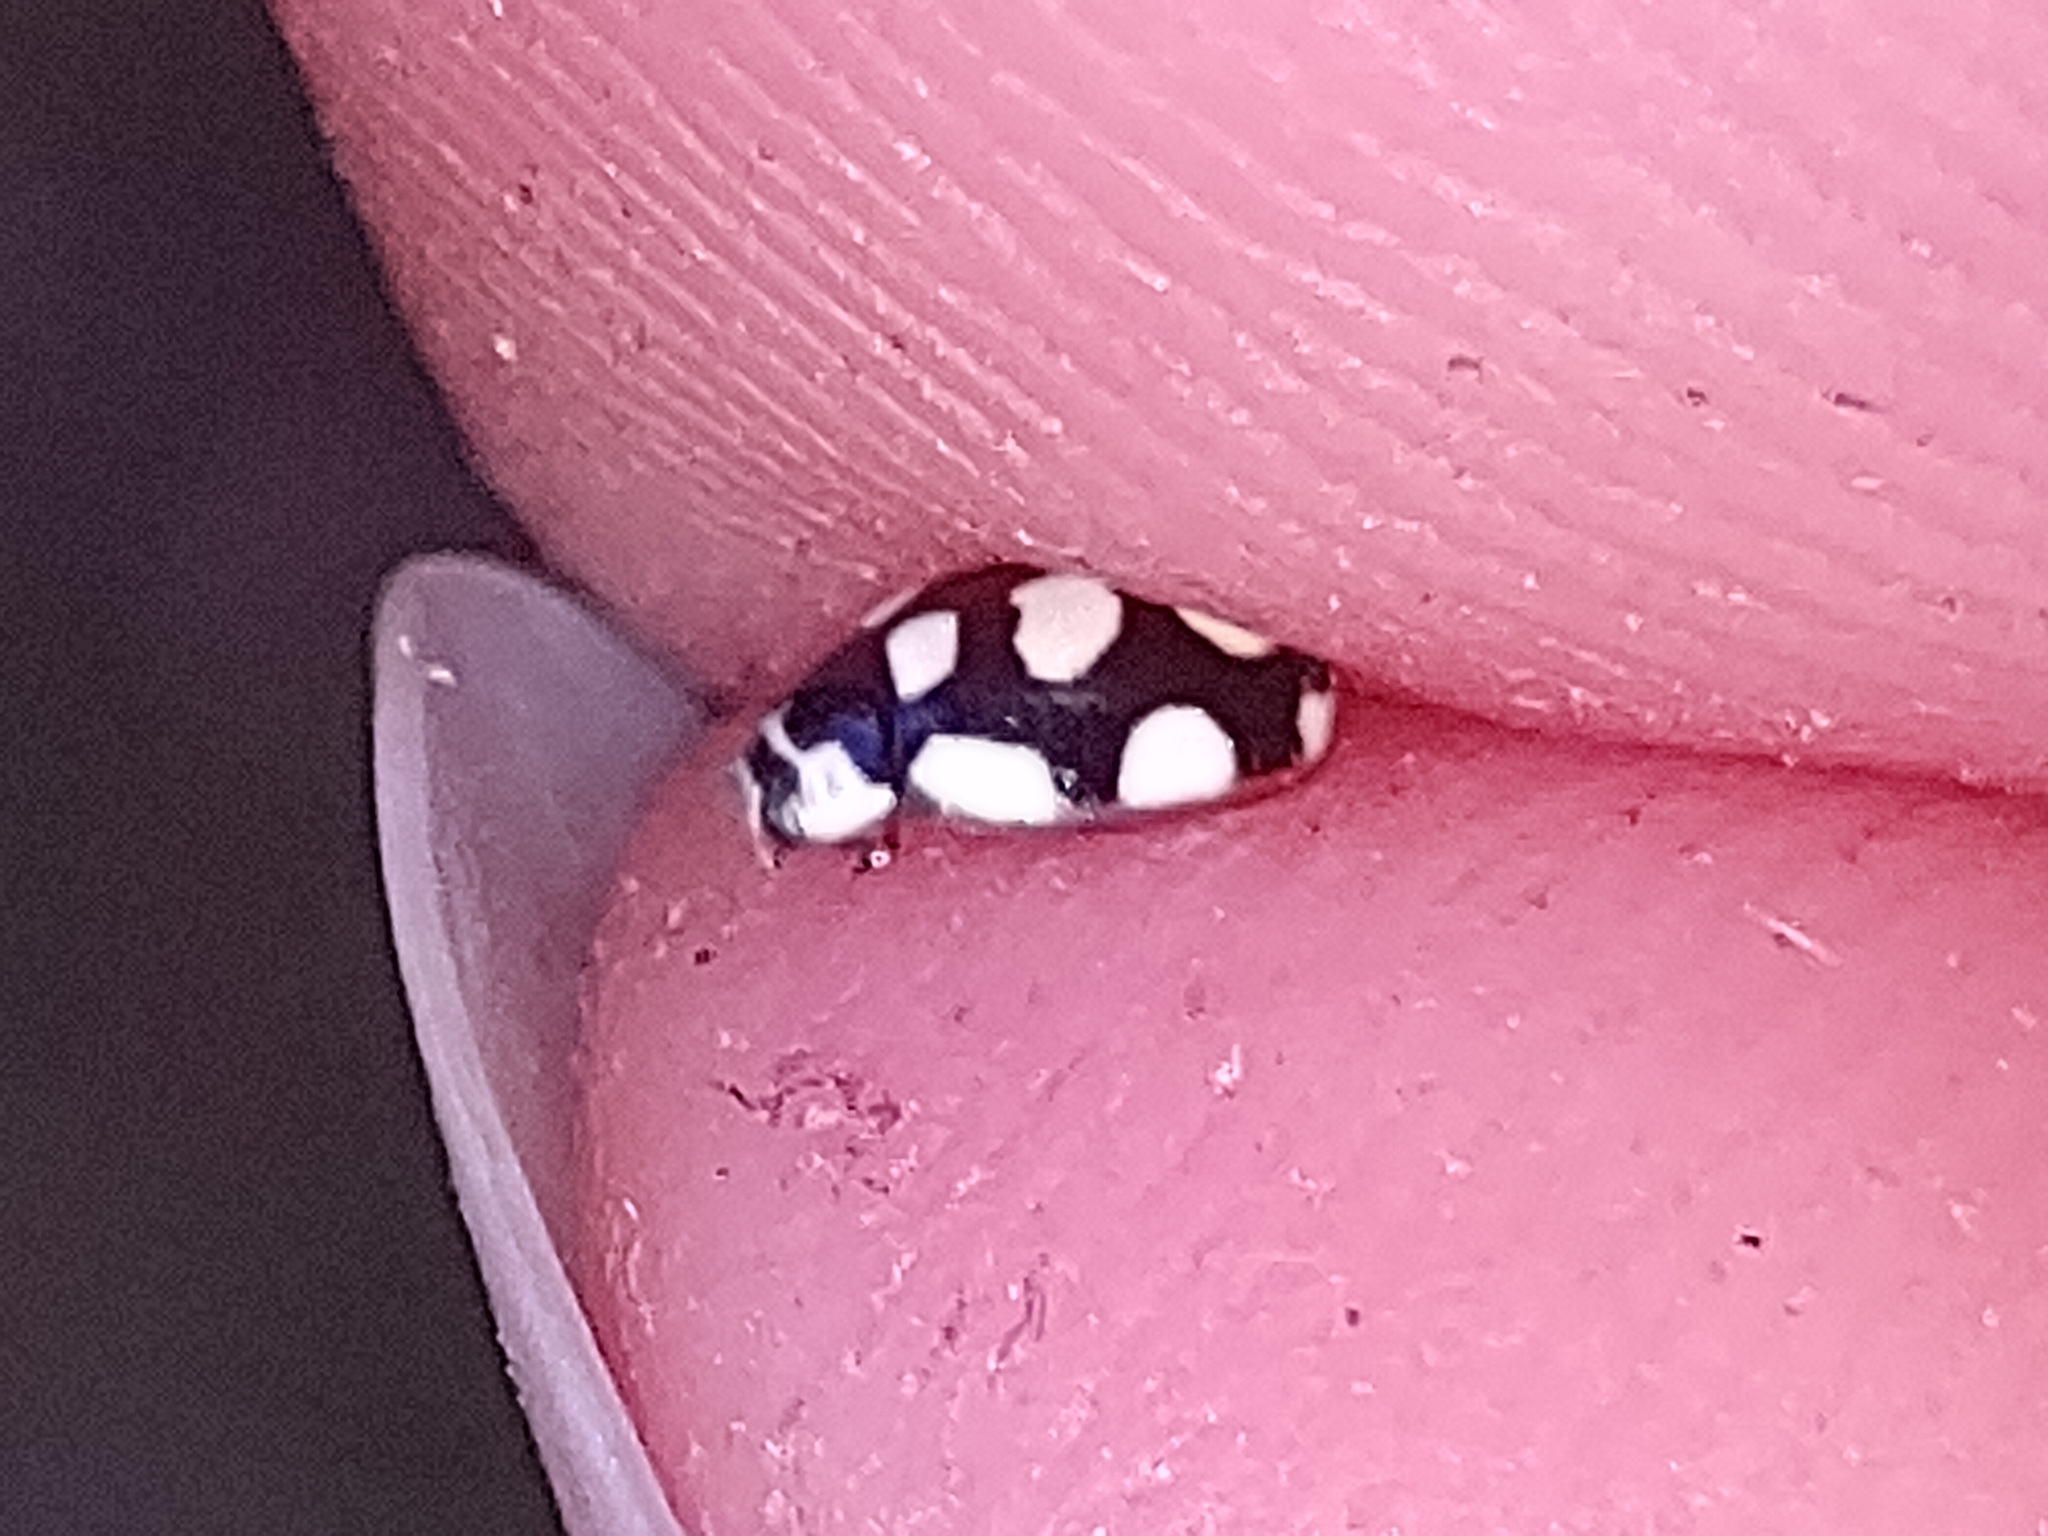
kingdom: Animalia
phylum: Arthropoda
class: Insecta
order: Coleoptera
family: Coccinellidae
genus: Oenopia
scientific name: Oenopia lyncea
